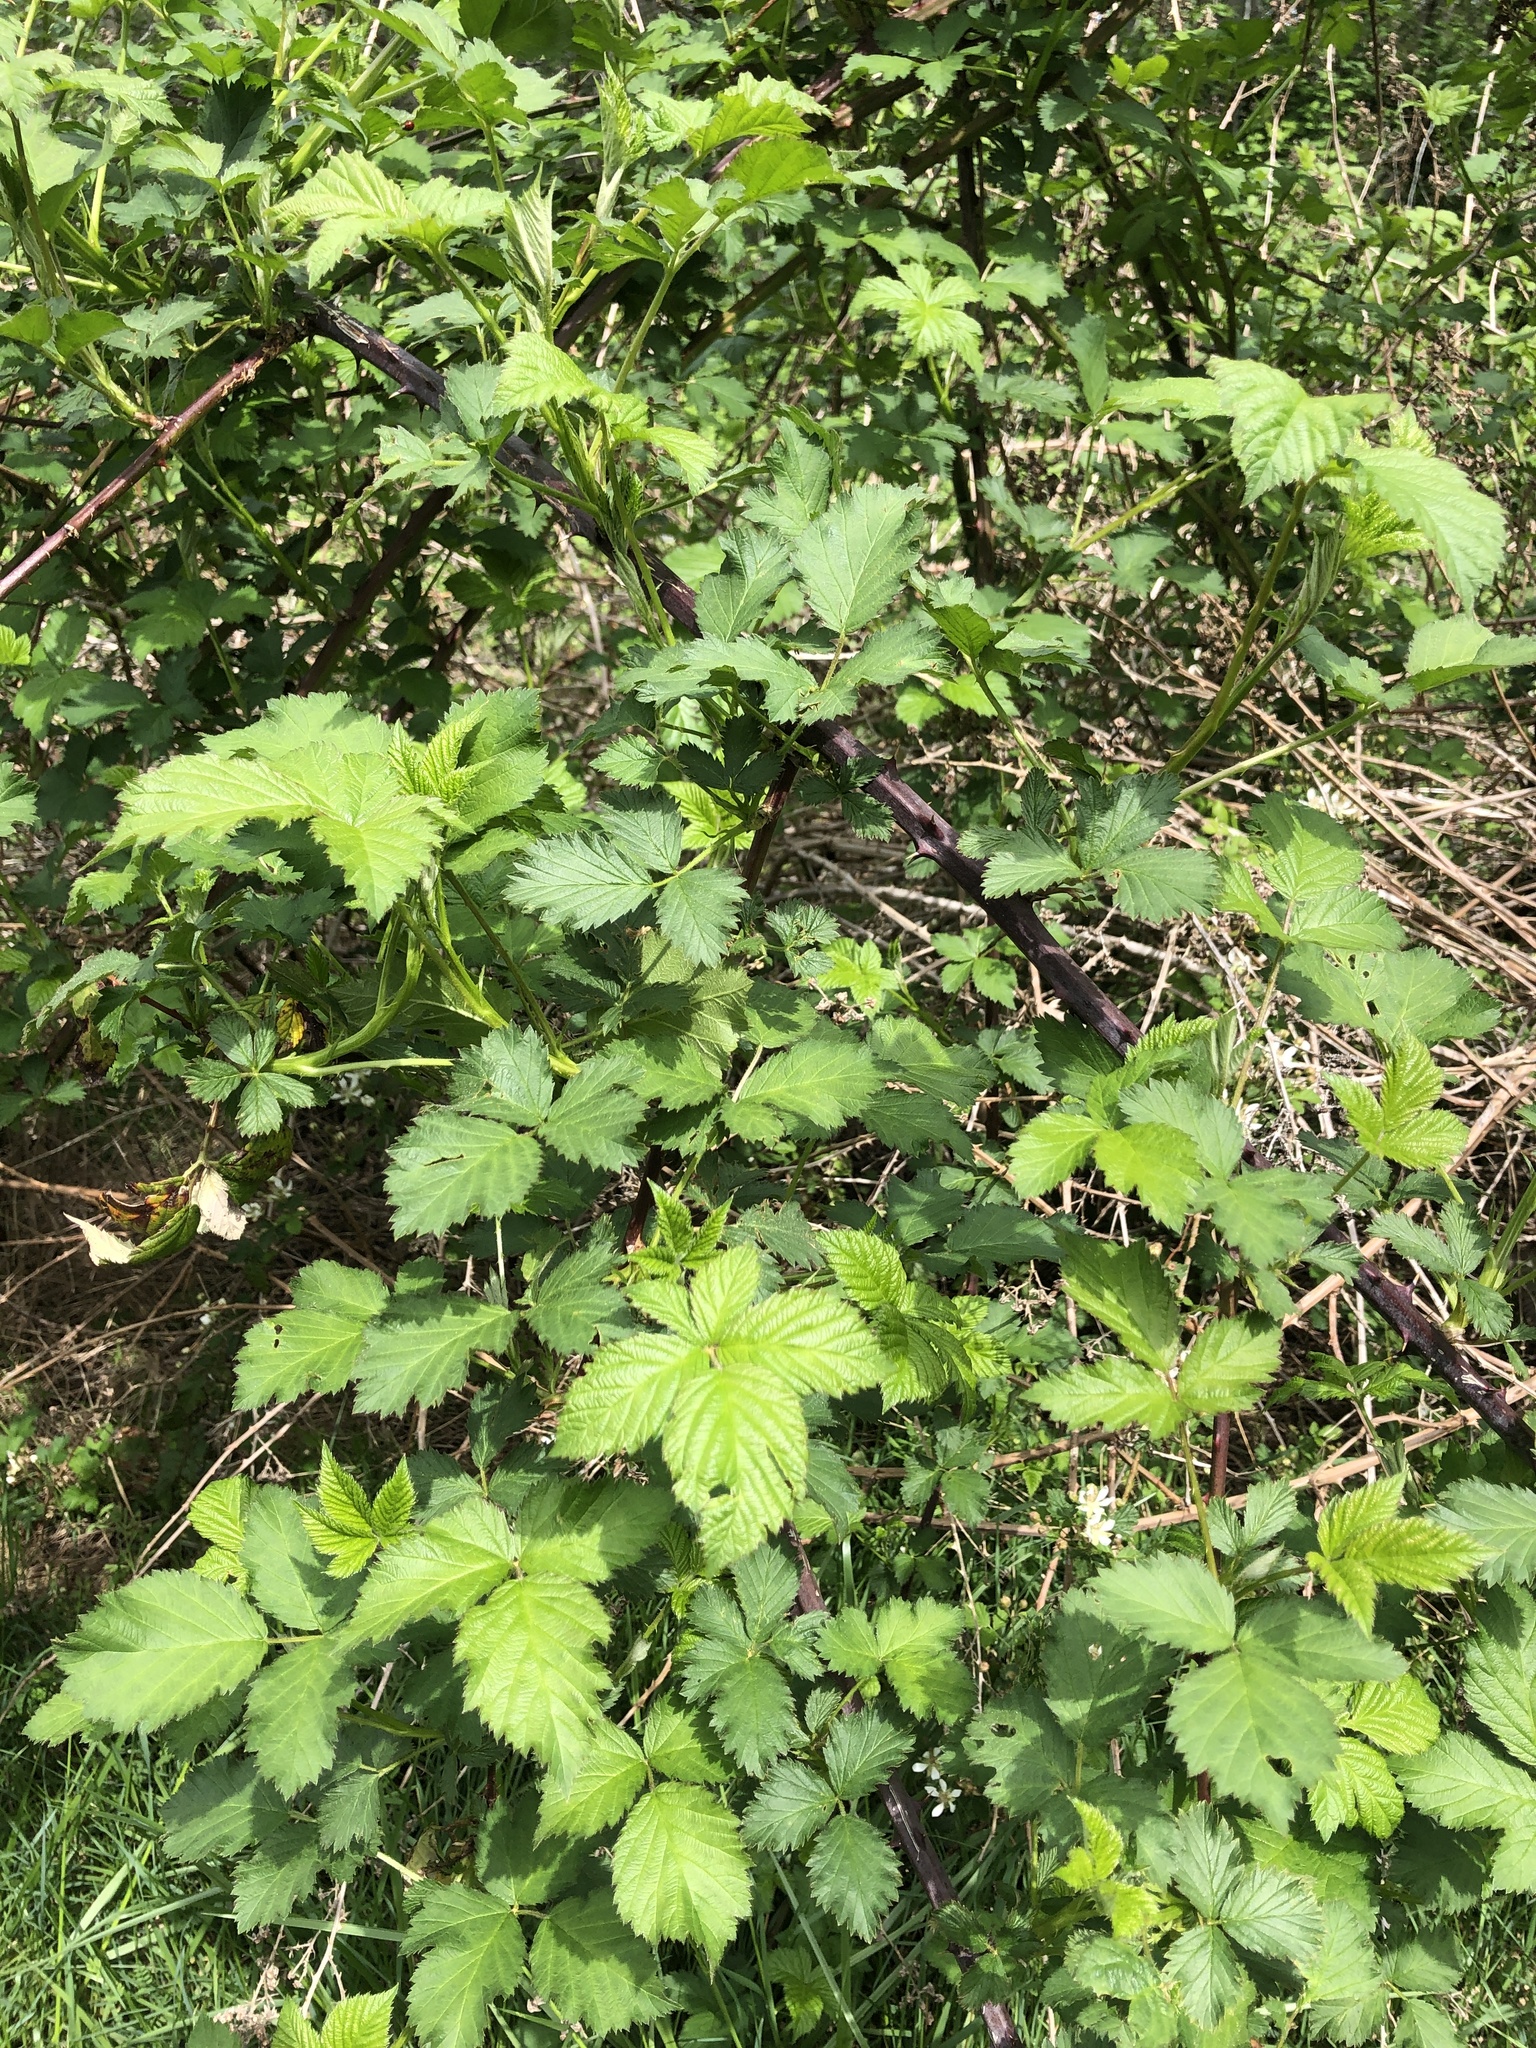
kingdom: Plantae
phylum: Tracheophyta
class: Magnoliopsida
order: Rosales
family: Rosaceae
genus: Rubus
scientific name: Rubus bifrons
